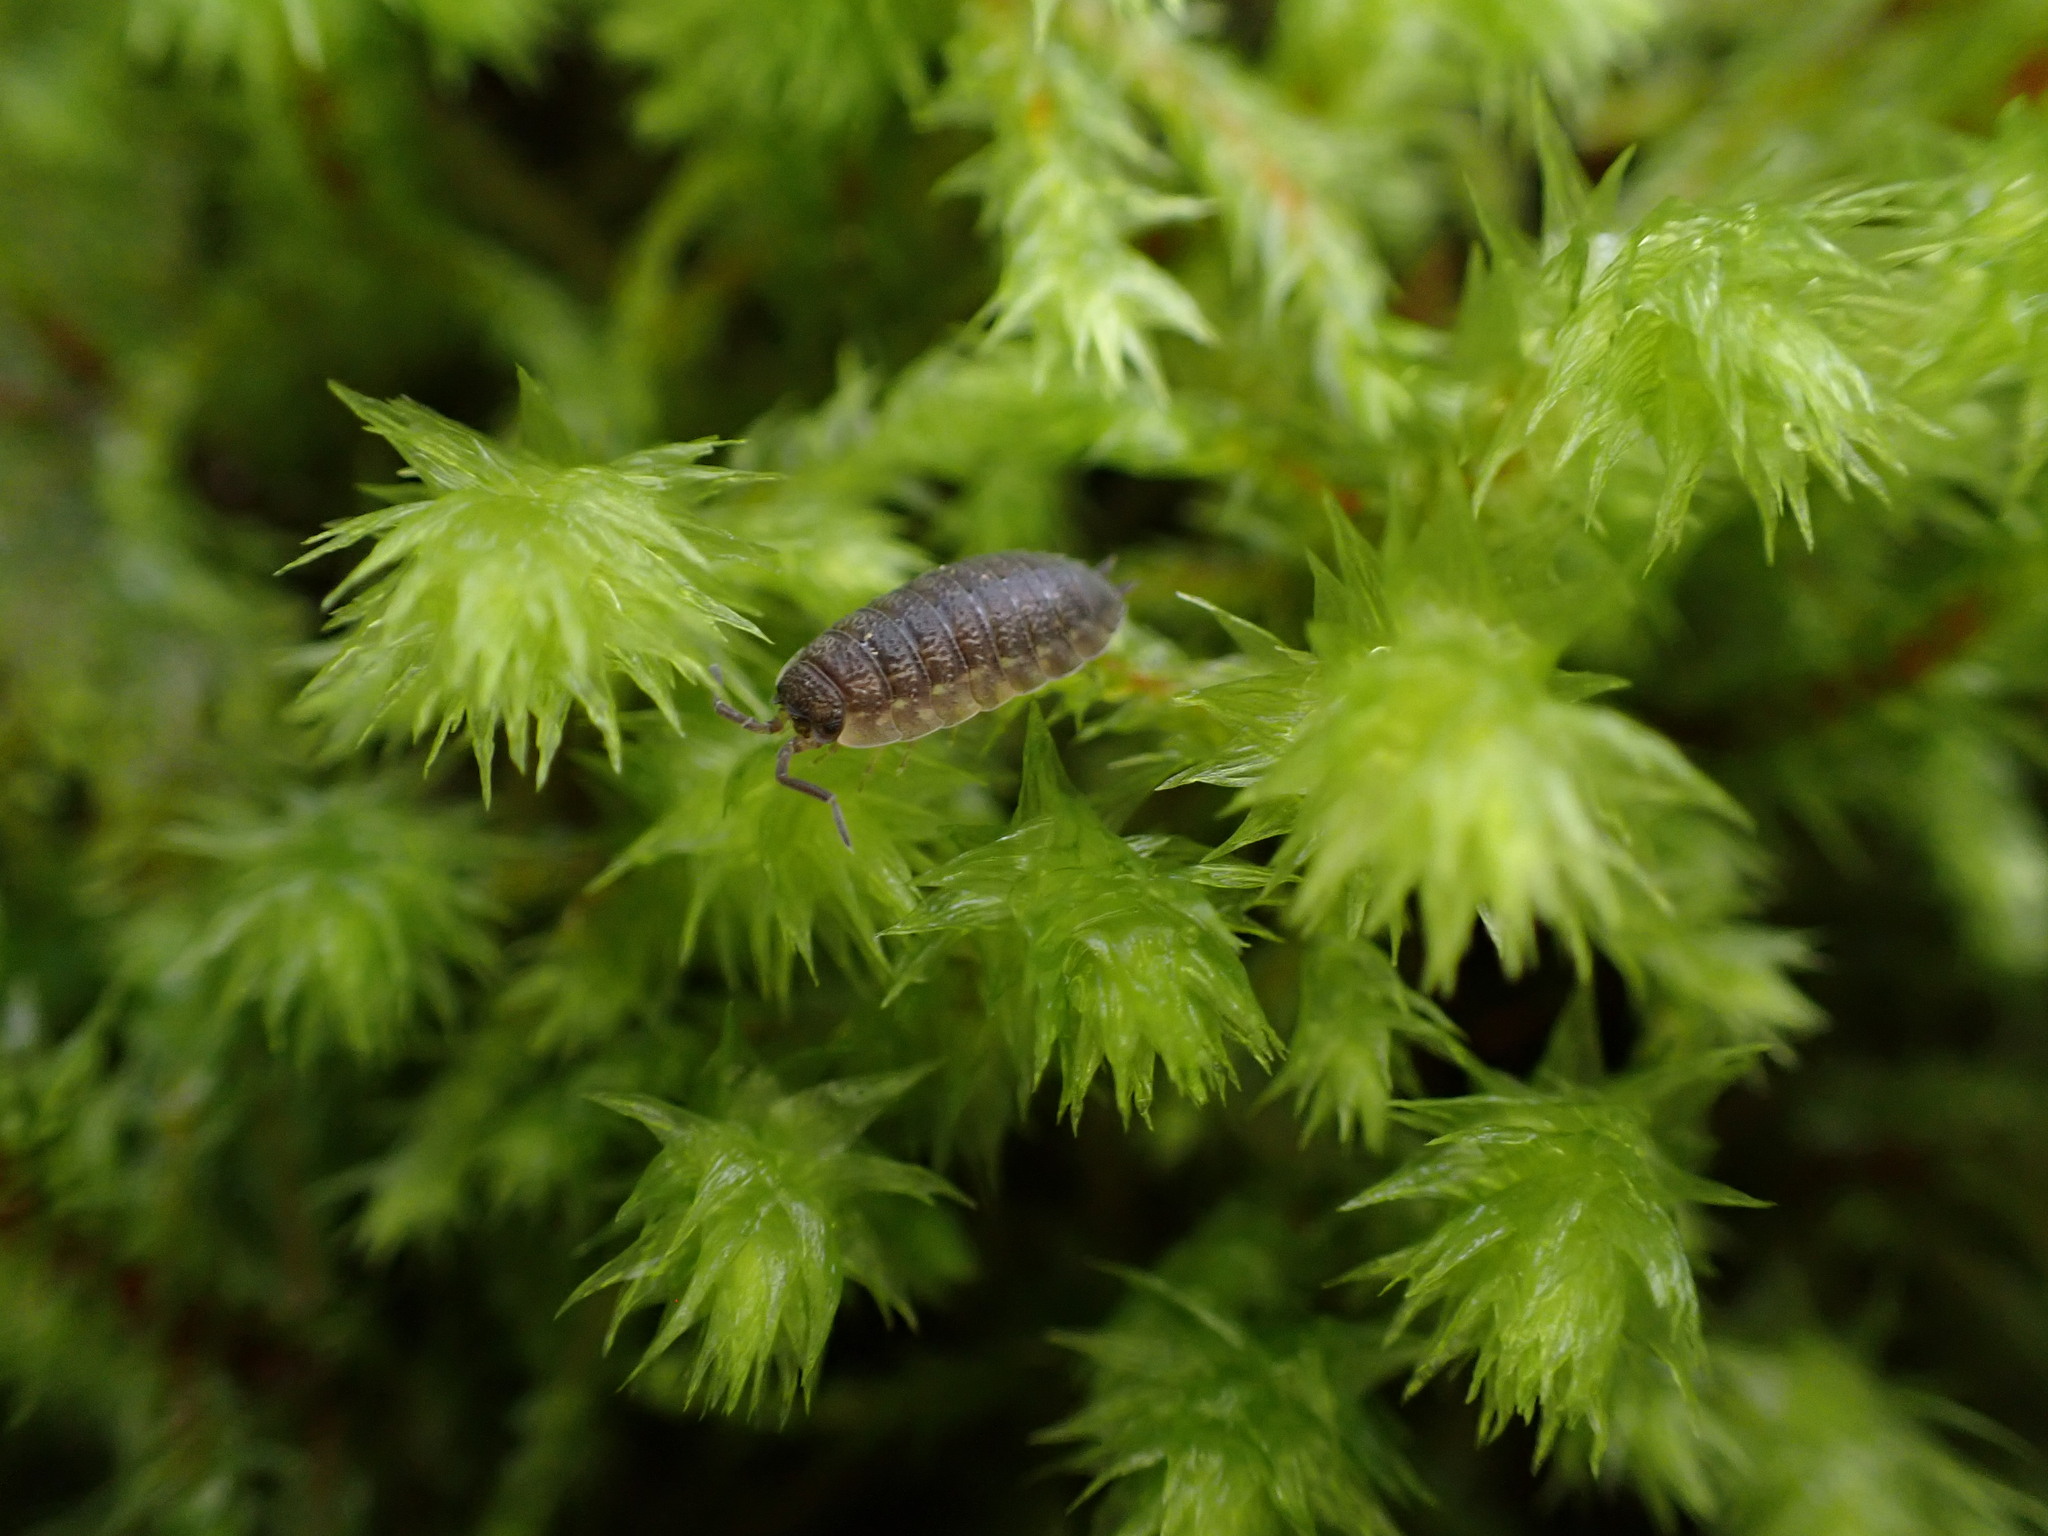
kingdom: Animalia
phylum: Arthropoda
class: Malacostraca
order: Isopoda
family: Porcellionidae
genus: Porcellio
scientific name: Porcellio scaber
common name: Common rough woodlouse
